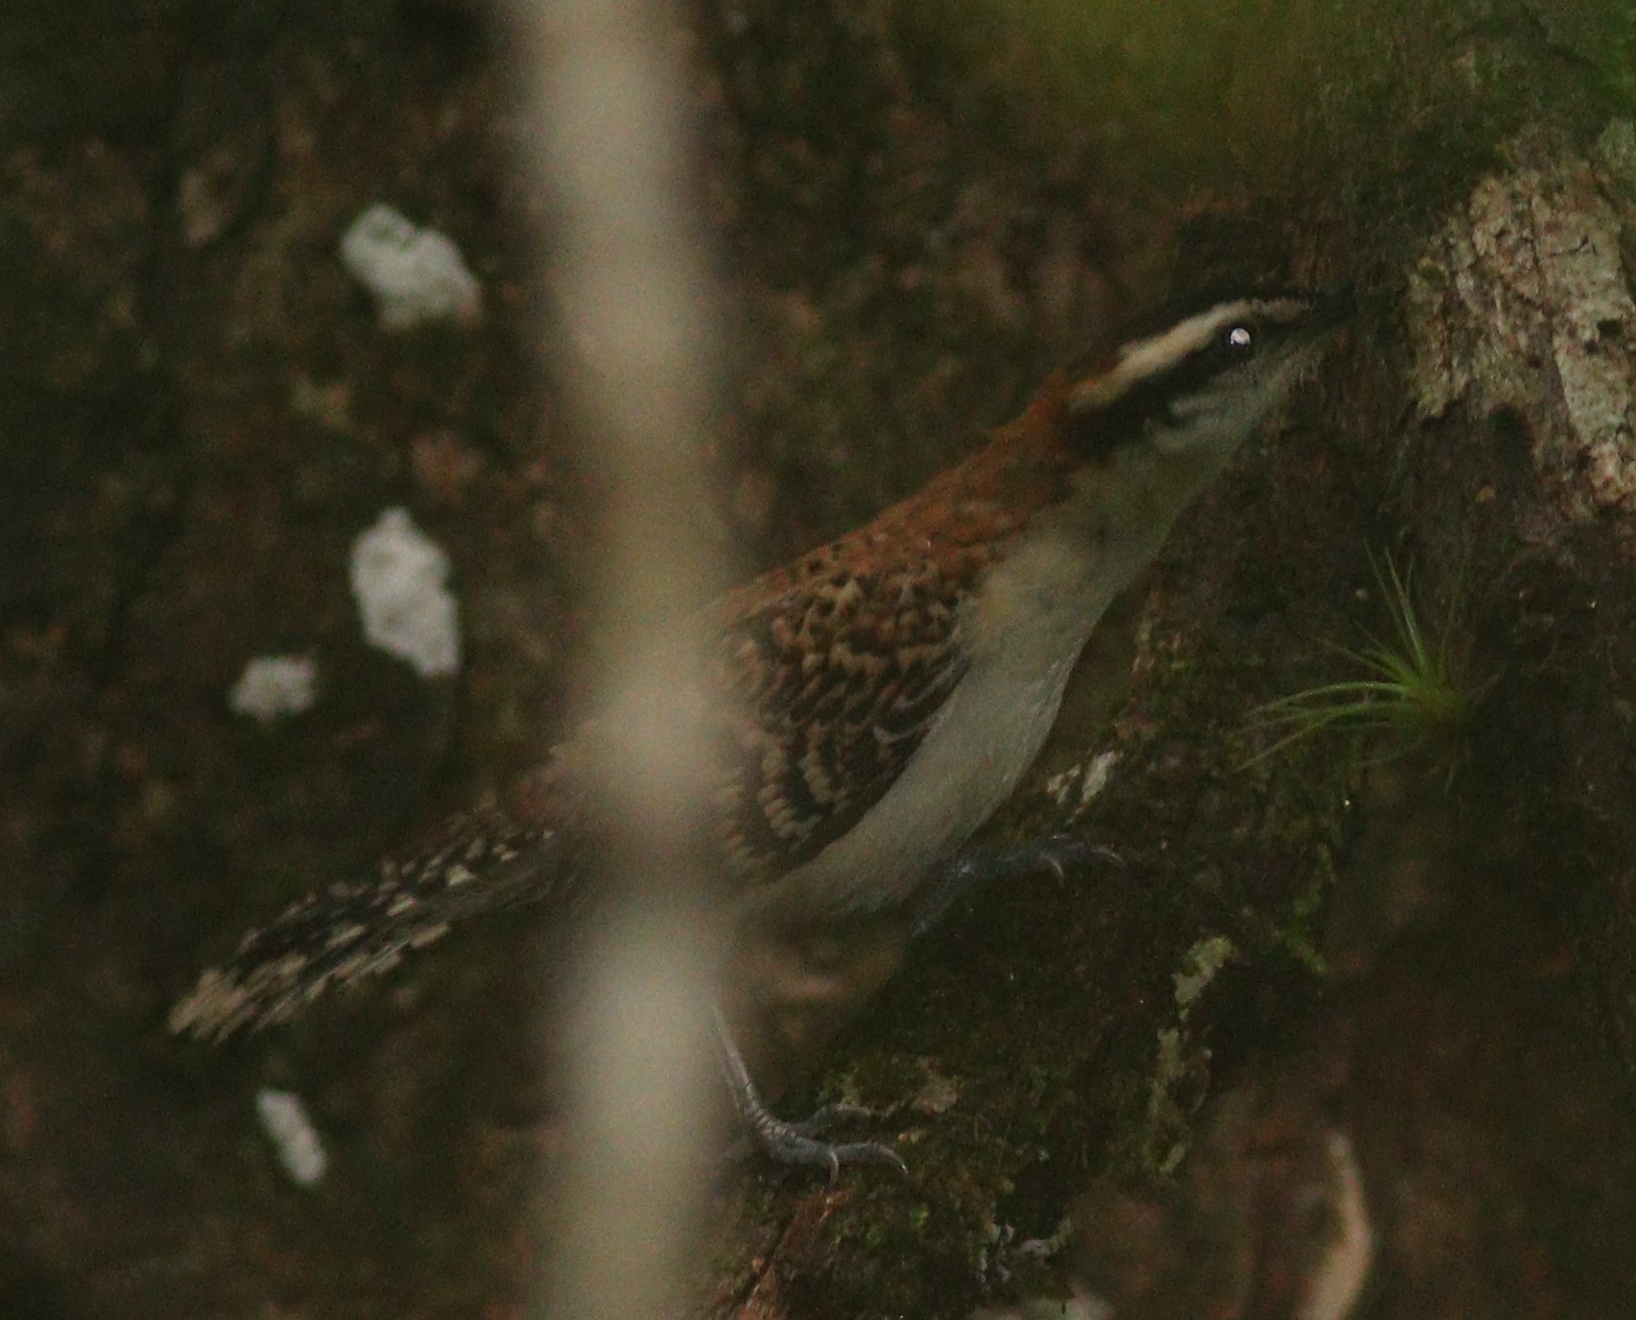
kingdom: Animalia
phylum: Chordata
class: Aves
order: Passeriformes
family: Troglodytidae
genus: Campylorhynchus
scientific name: Campylorhynchus rufinucha
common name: Rufous-naped wren
